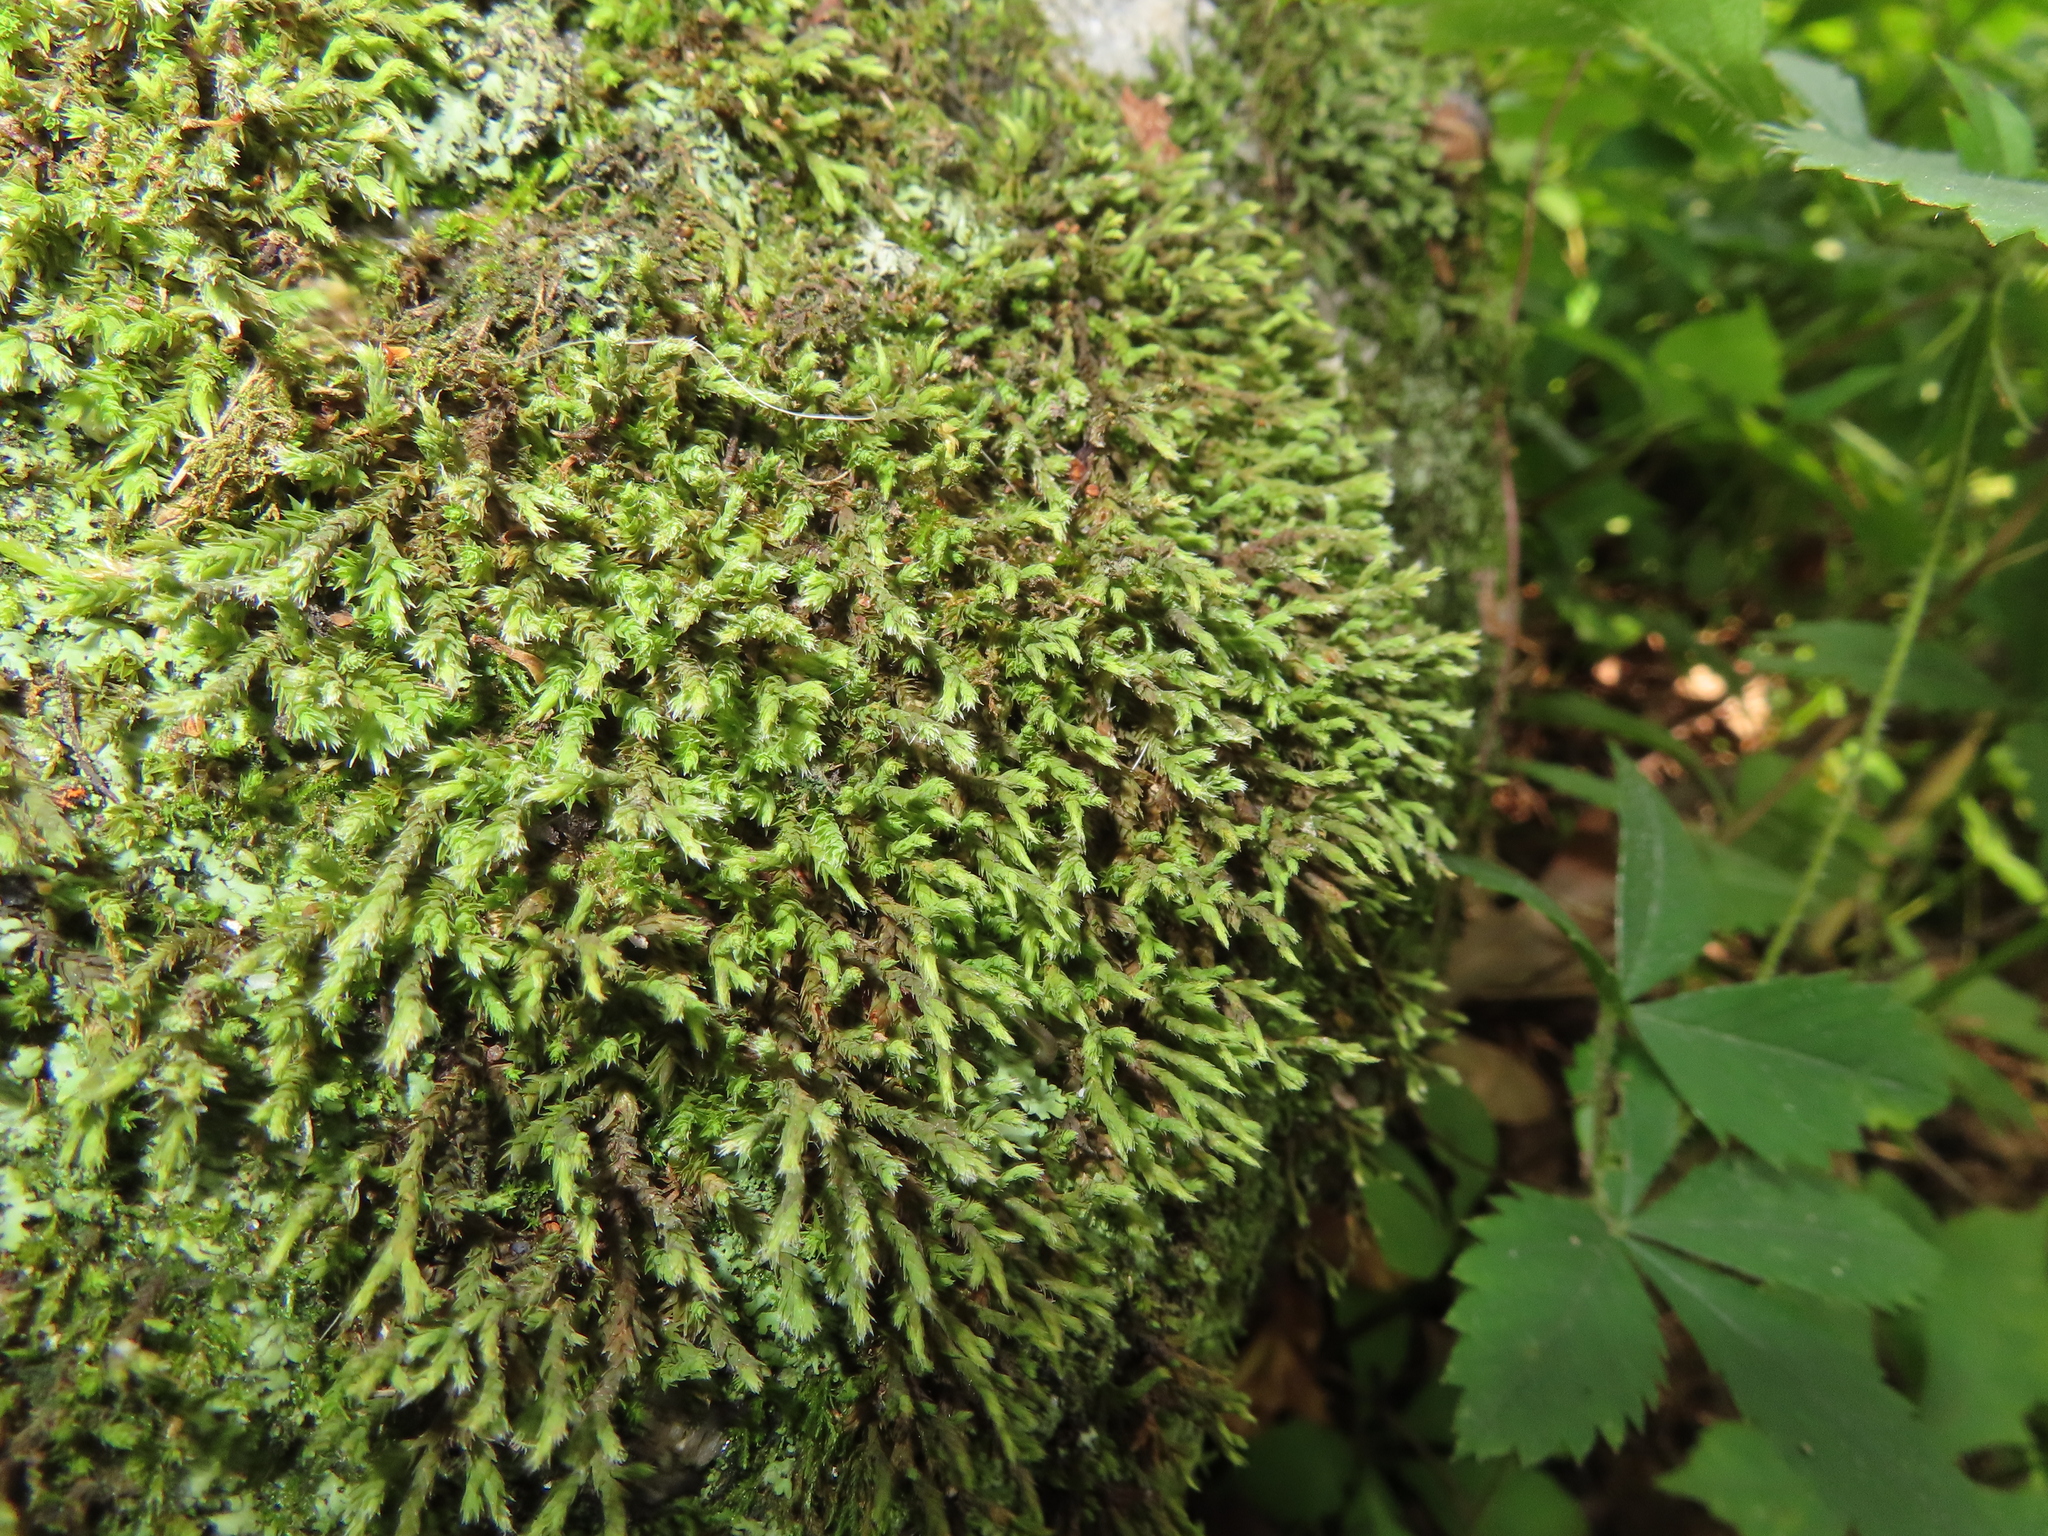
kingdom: Plantae
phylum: Bryophyta
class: Bryopsida
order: Hedwigiales
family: Hedwigiaceae
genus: Hedwigia
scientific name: Hedwigia ciliata
